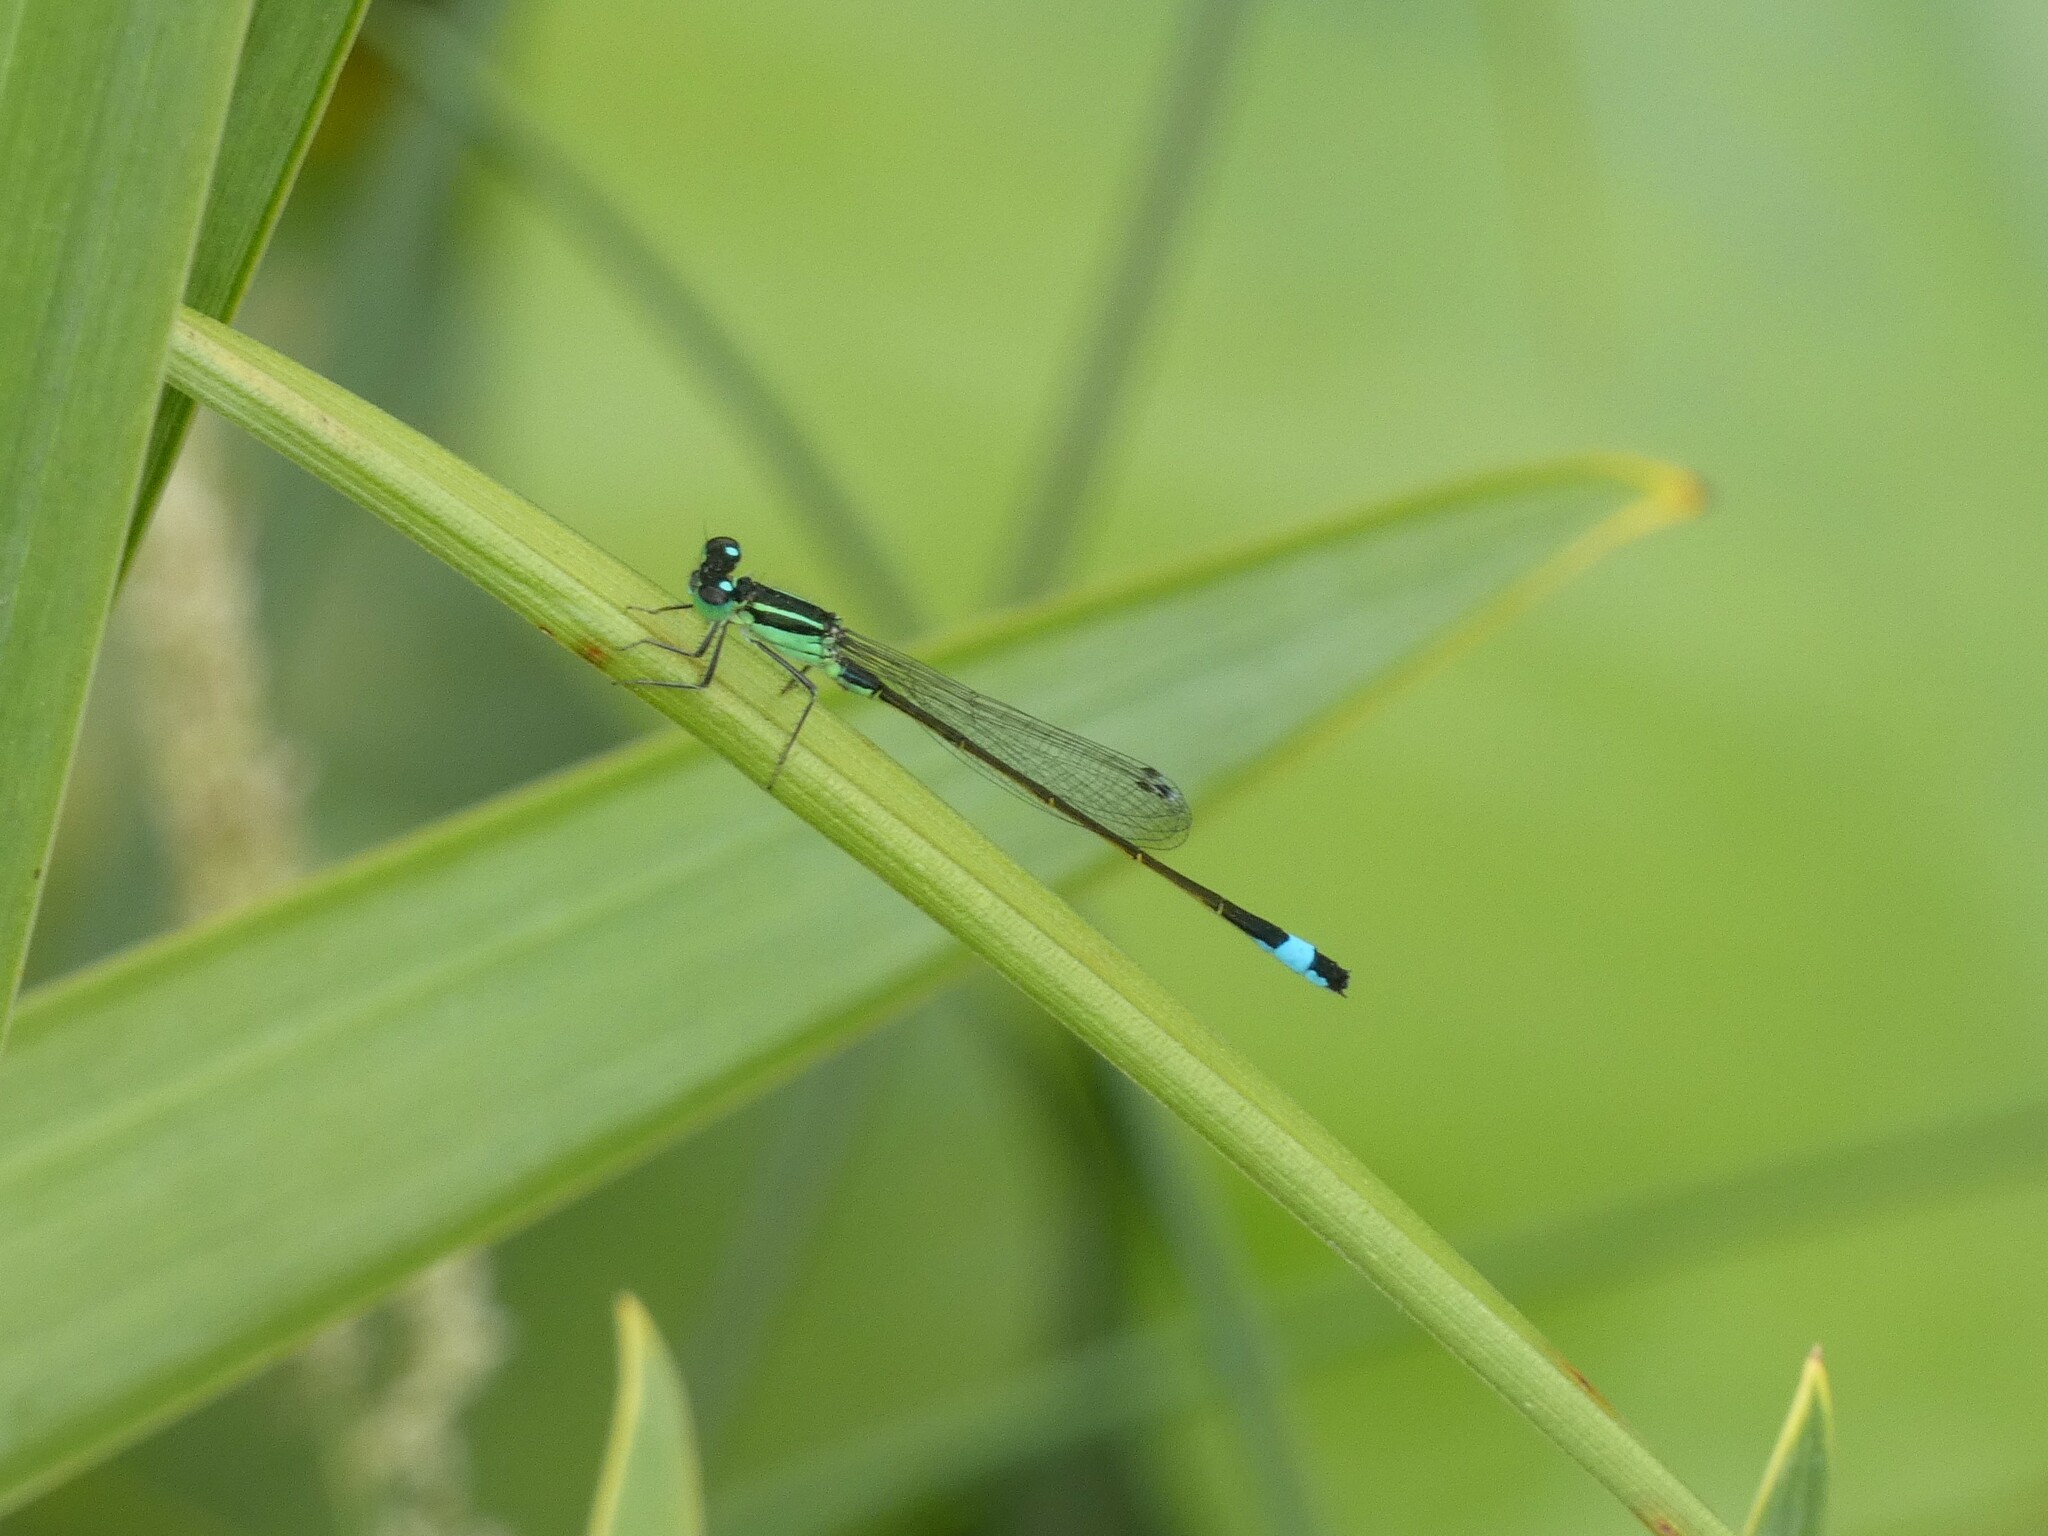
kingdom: Animalia
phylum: Arthropoda
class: Insecta
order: Odonata
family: Coenagrionidae
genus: Ischnura
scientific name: Ischnura elegans
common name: Blue-tailed damselfly
